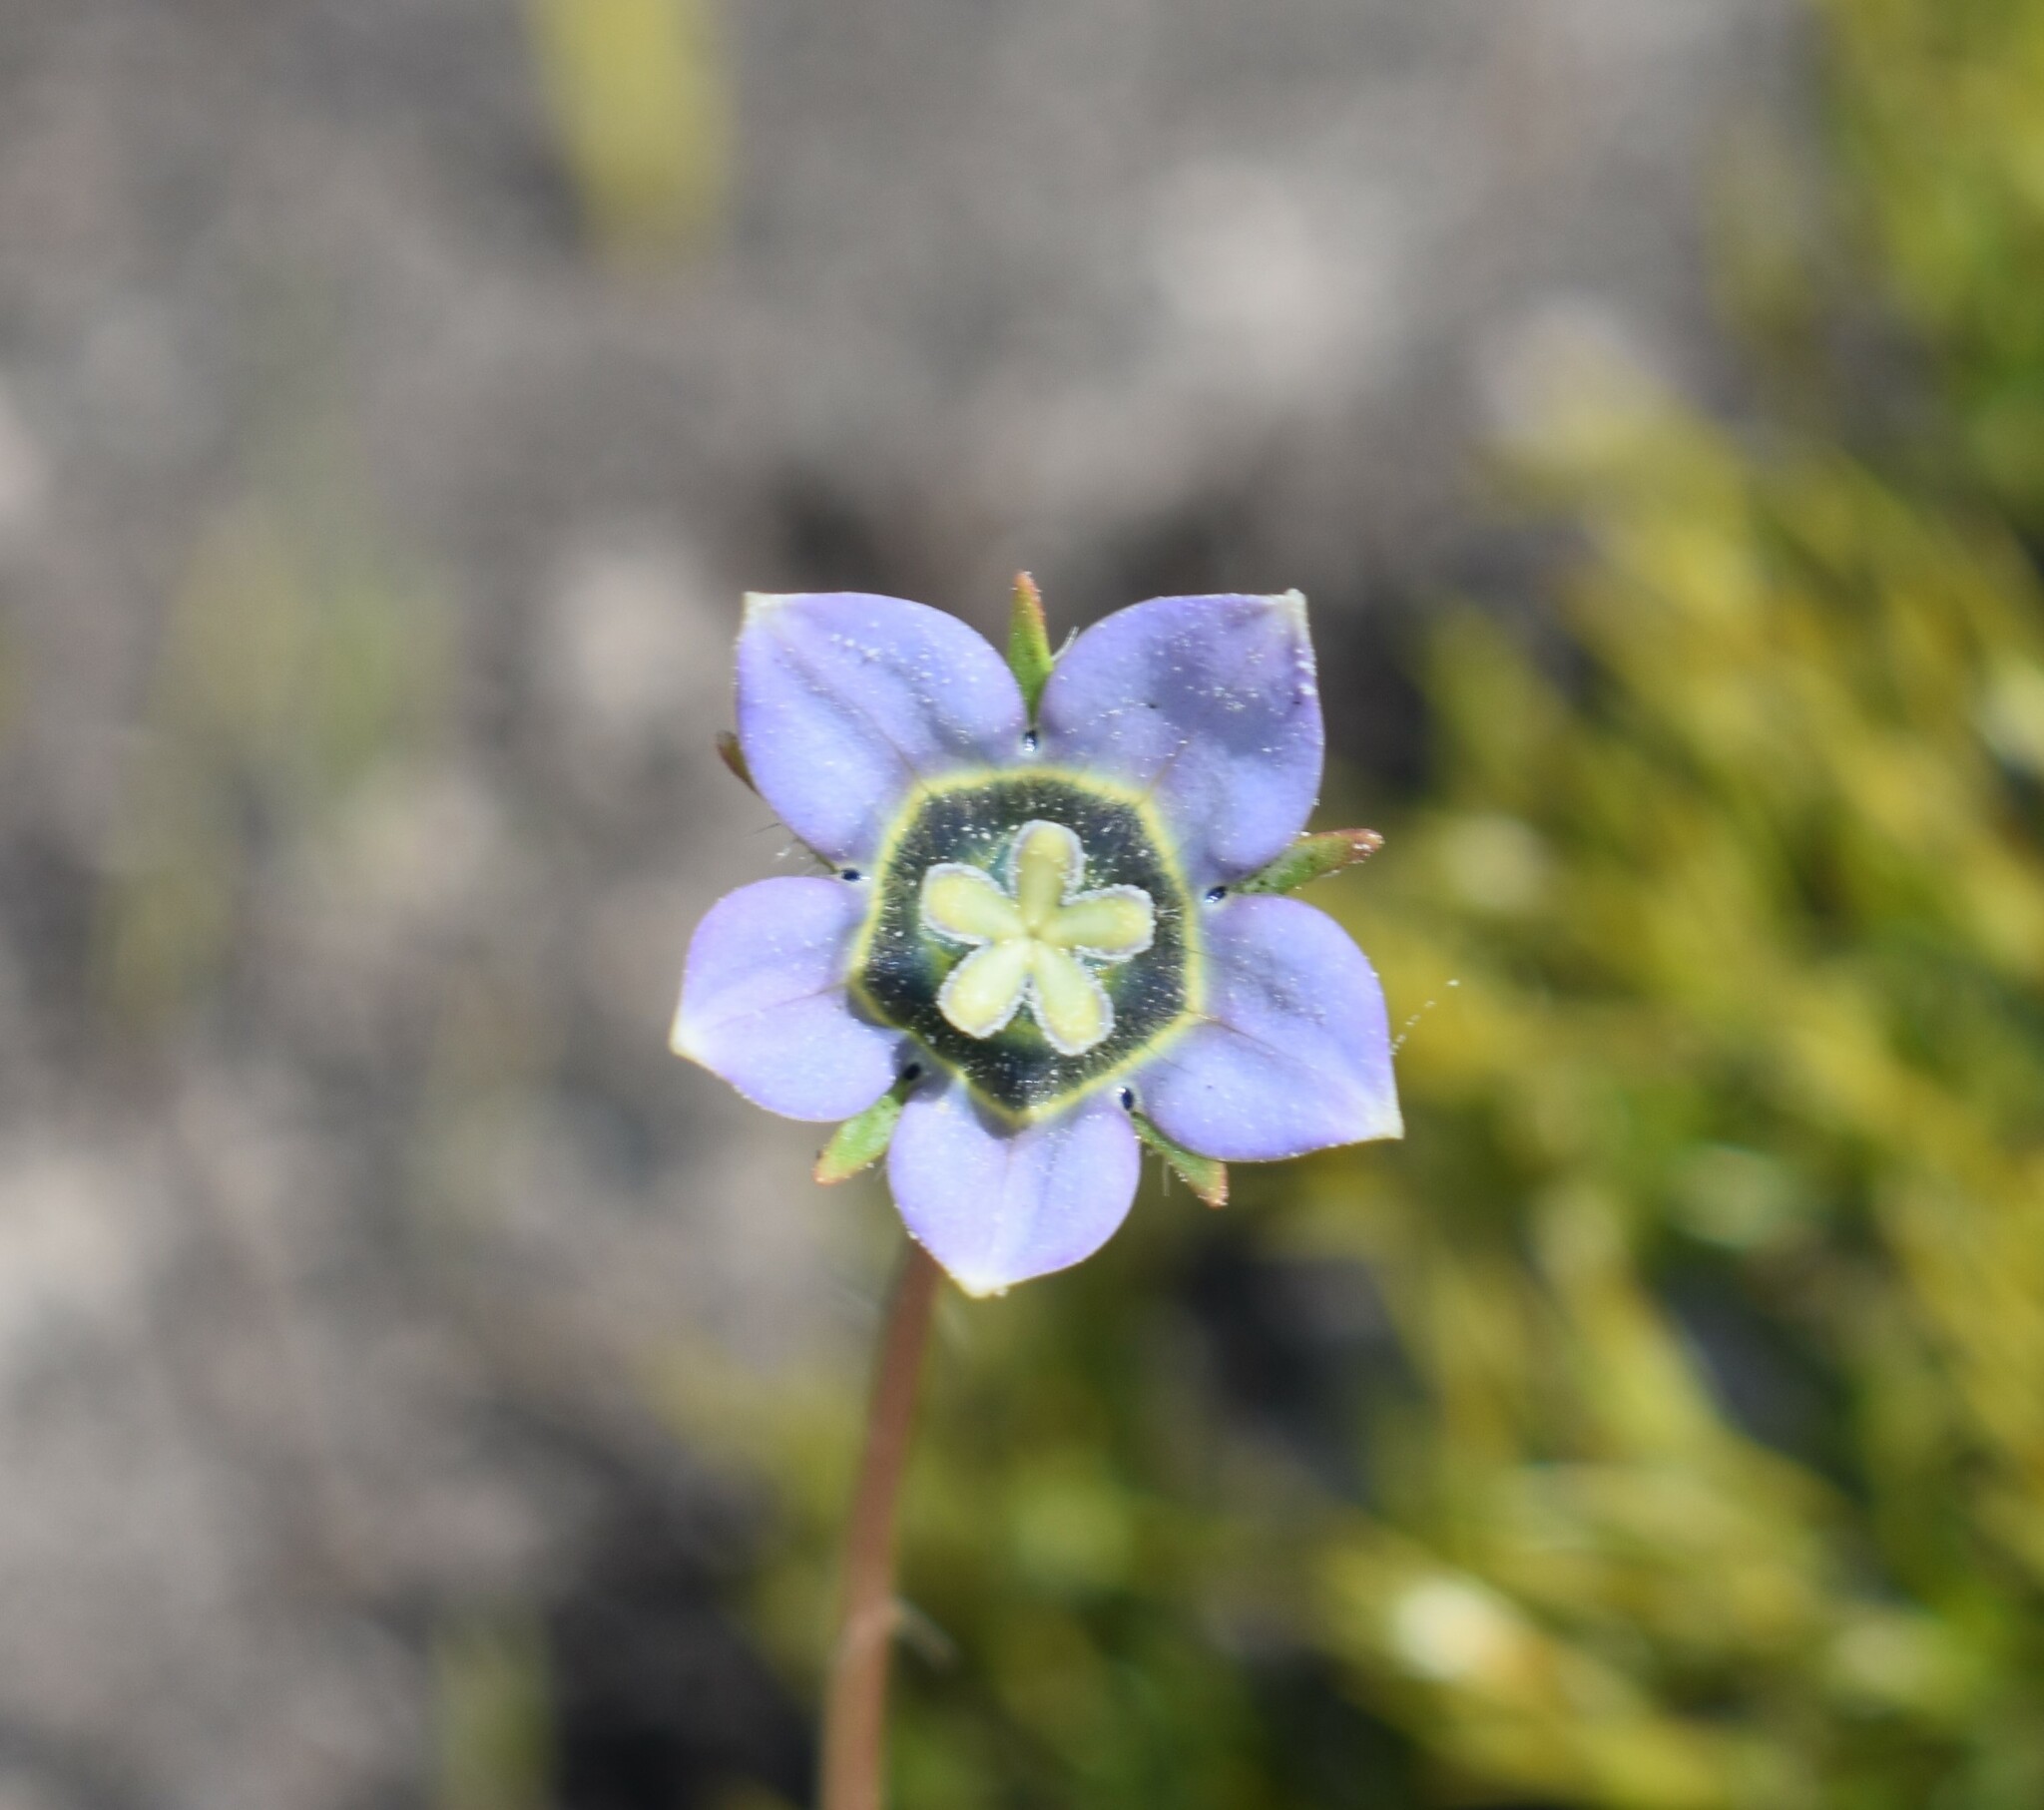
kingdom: Plantae
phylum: Tracheophyta
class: Magnoliopsida
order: Asterales
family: Campanulaceae
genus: Wahlenbergia
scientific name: Wahlenbergia capensis
